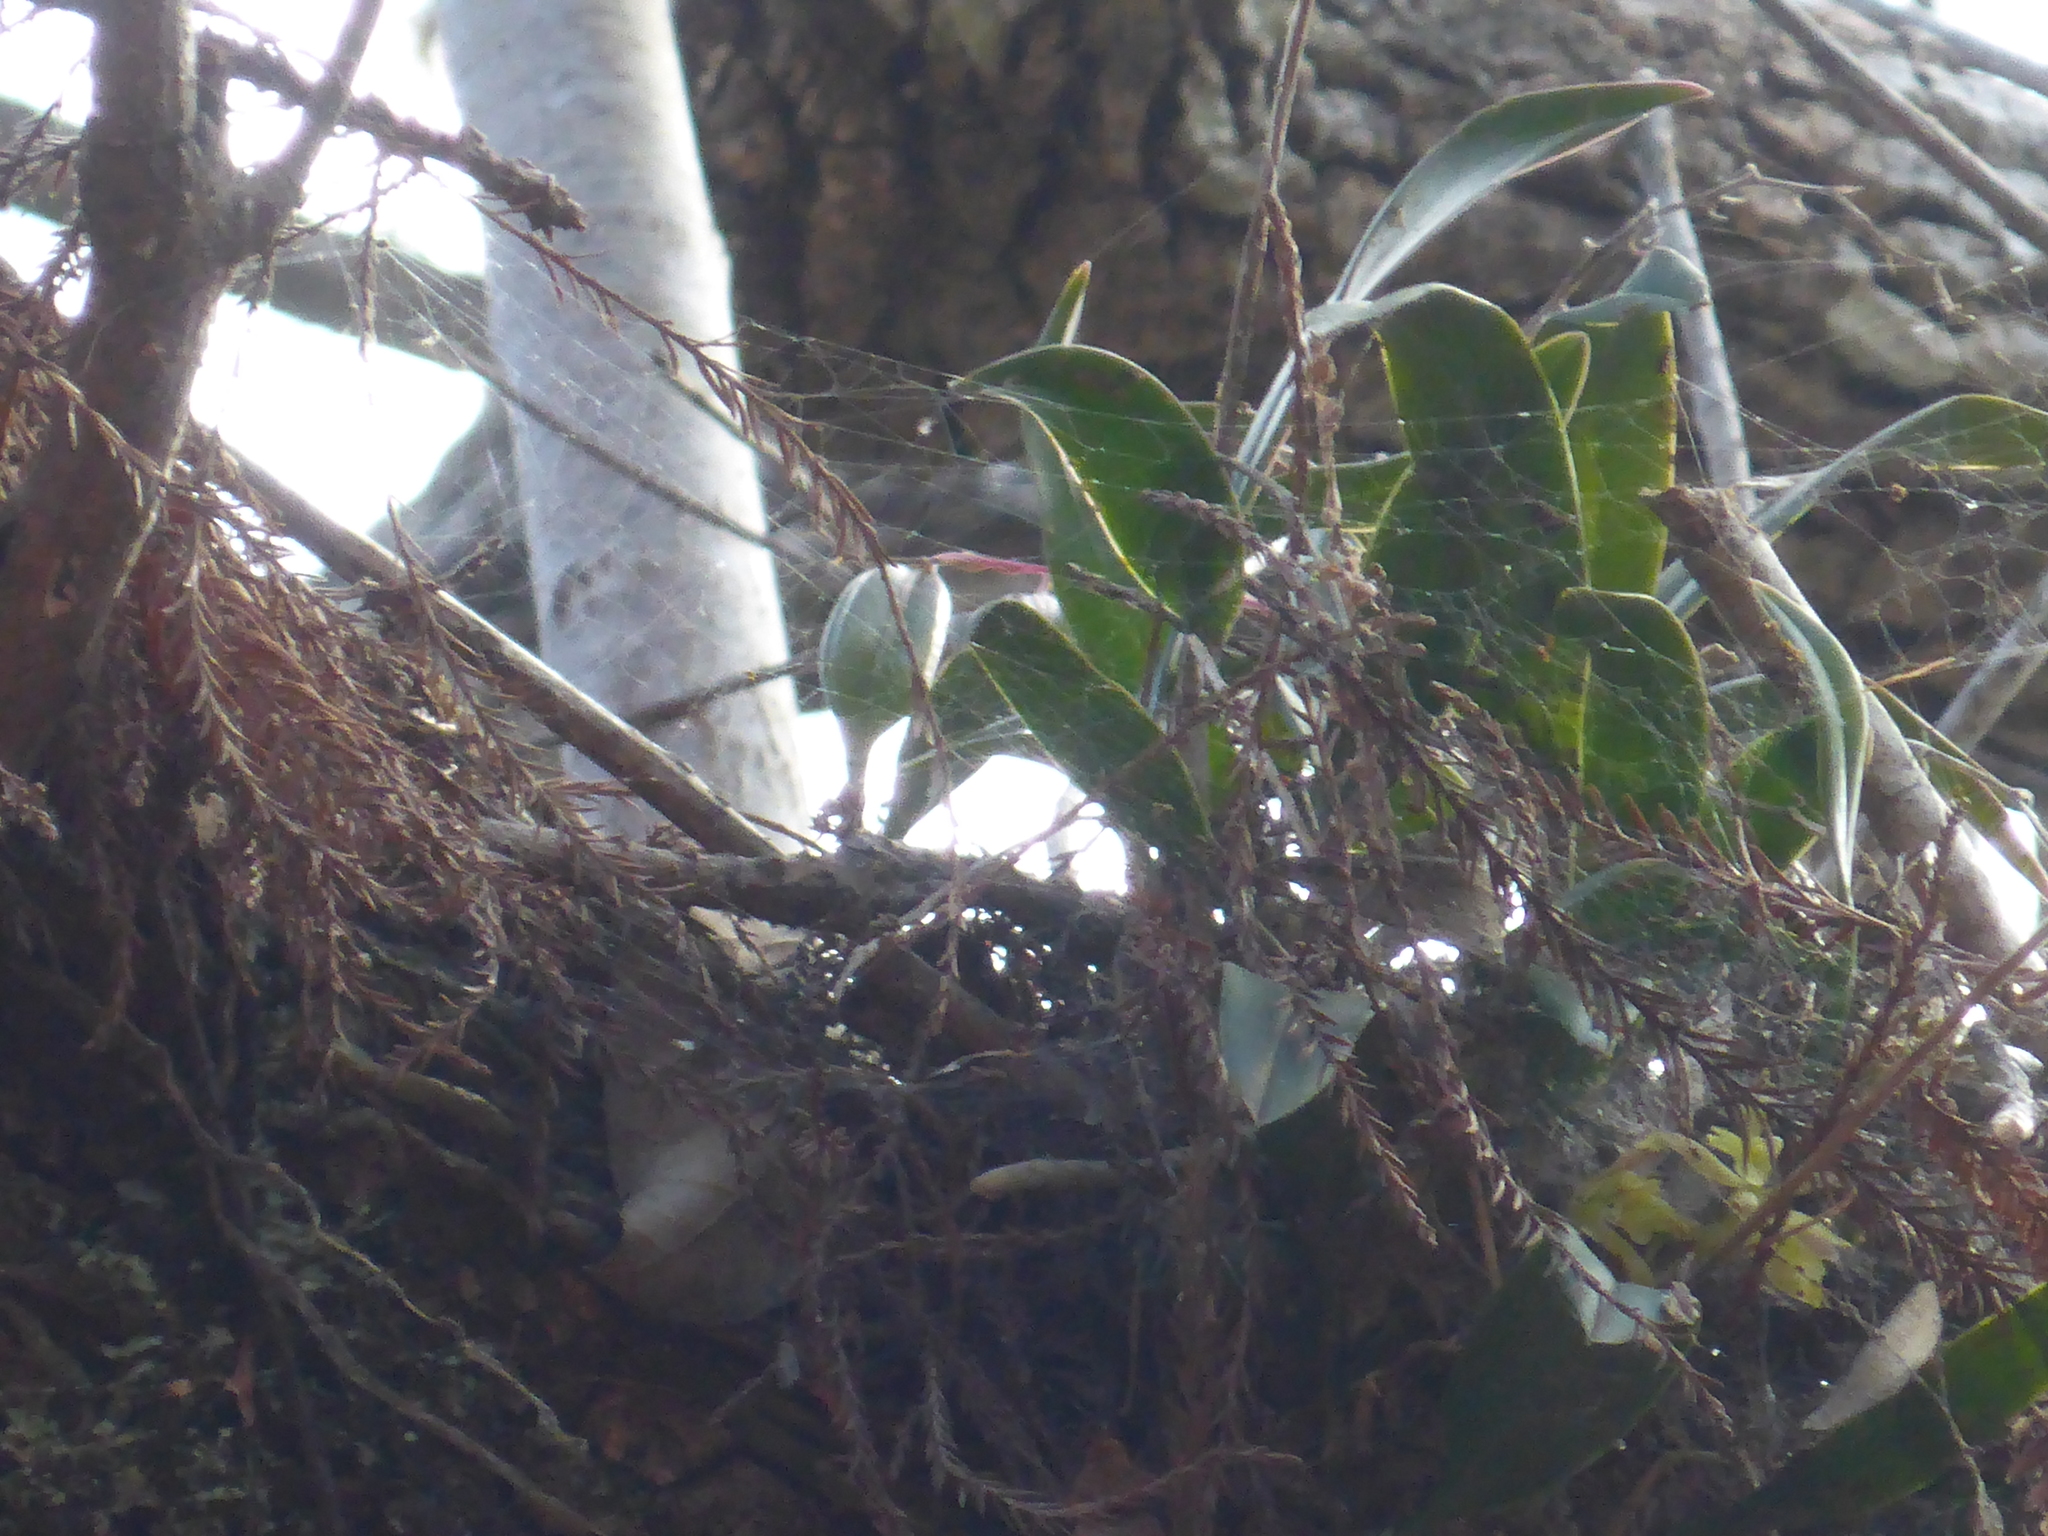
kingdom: Plantae
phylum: Tracheophyta
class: Liliopsida
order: Asparagales
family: Orchidaceae
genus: Epidendrum
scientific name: Epidendrum conopseum
